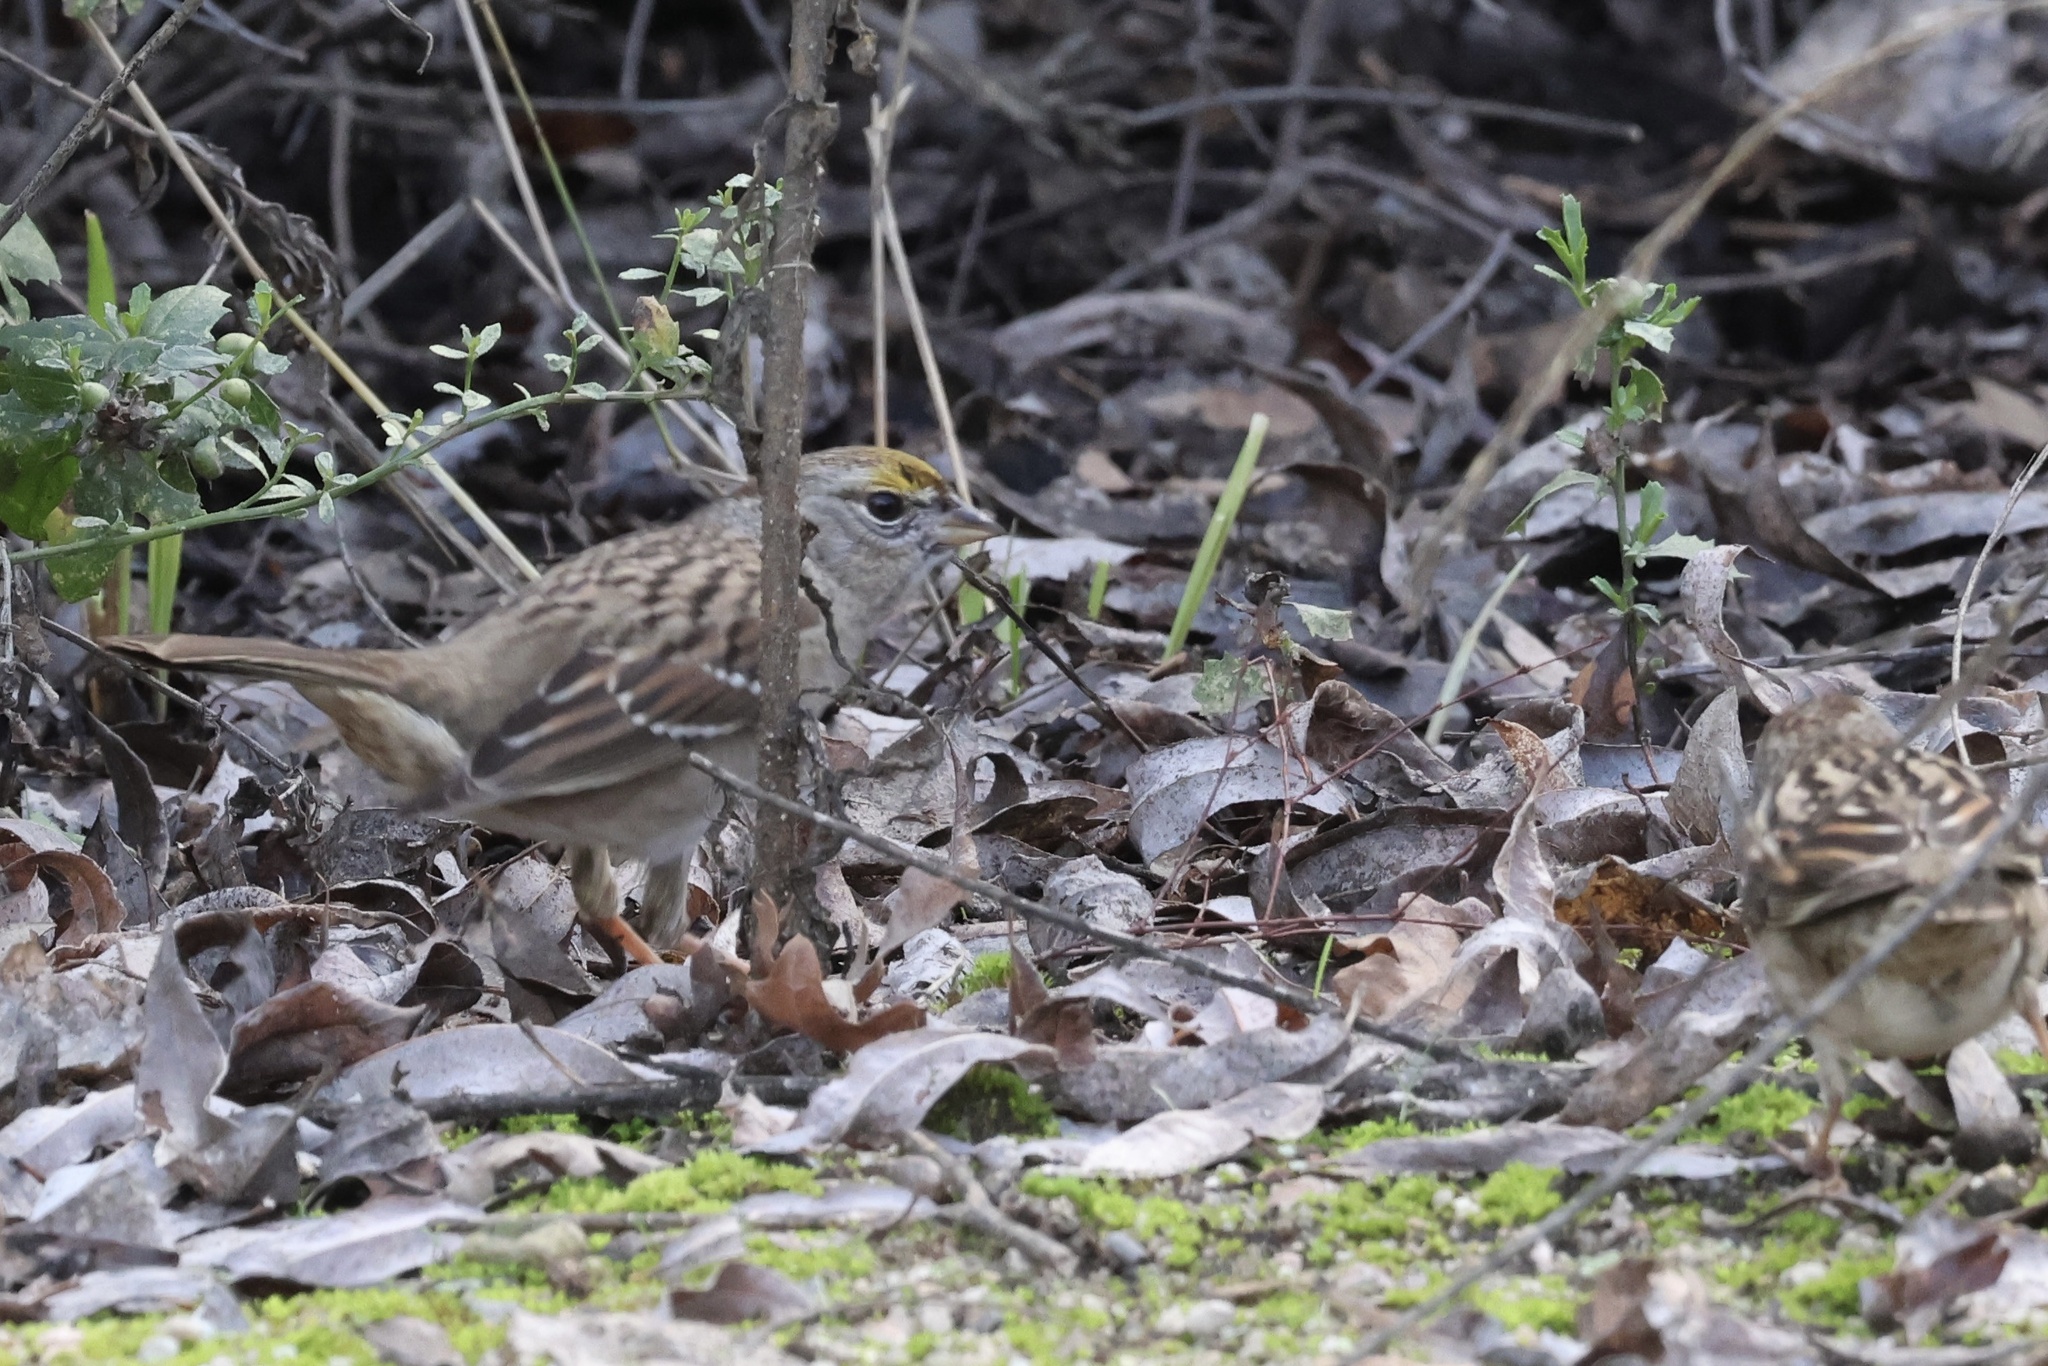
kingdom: Animalia
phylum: Chordata
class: Aves
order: Passeriformes
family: Passerellidae
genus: Zonotrichia
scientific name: Zonotrichia atricapilla
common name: Golden-crowned sparrow
